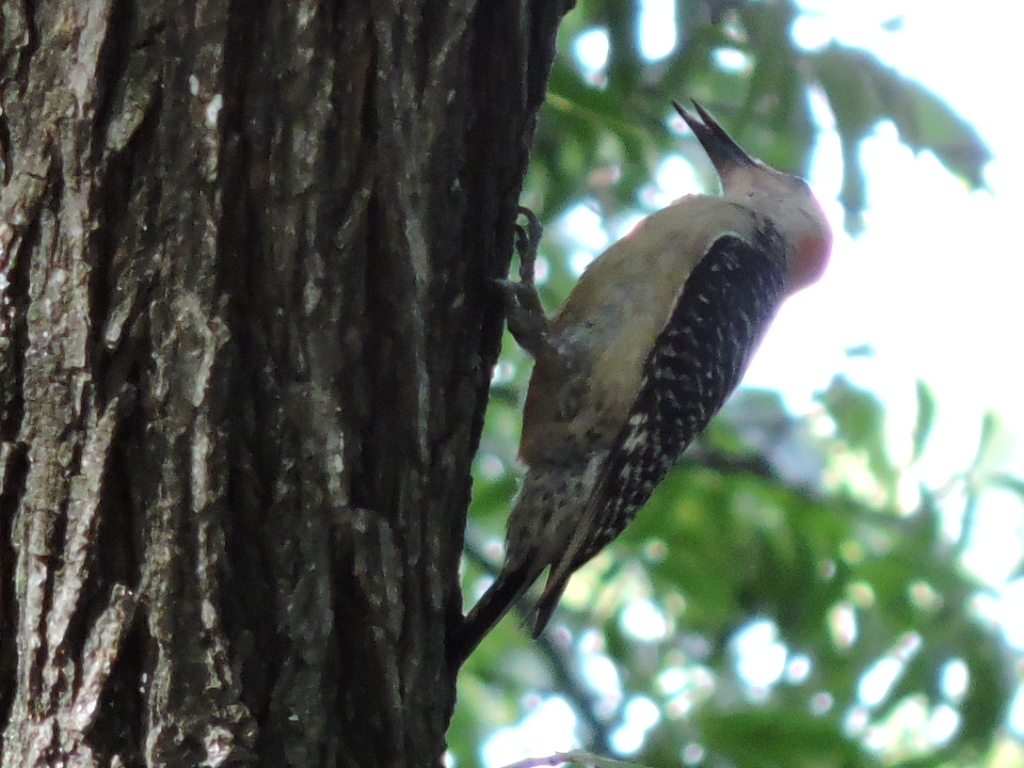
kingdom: Animalia
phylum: Chordata
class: Aves
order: Piciformes
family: Picidae
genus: Melanerpes
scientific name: Melanerpes carolinus
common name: Red-bellied woodpecker
